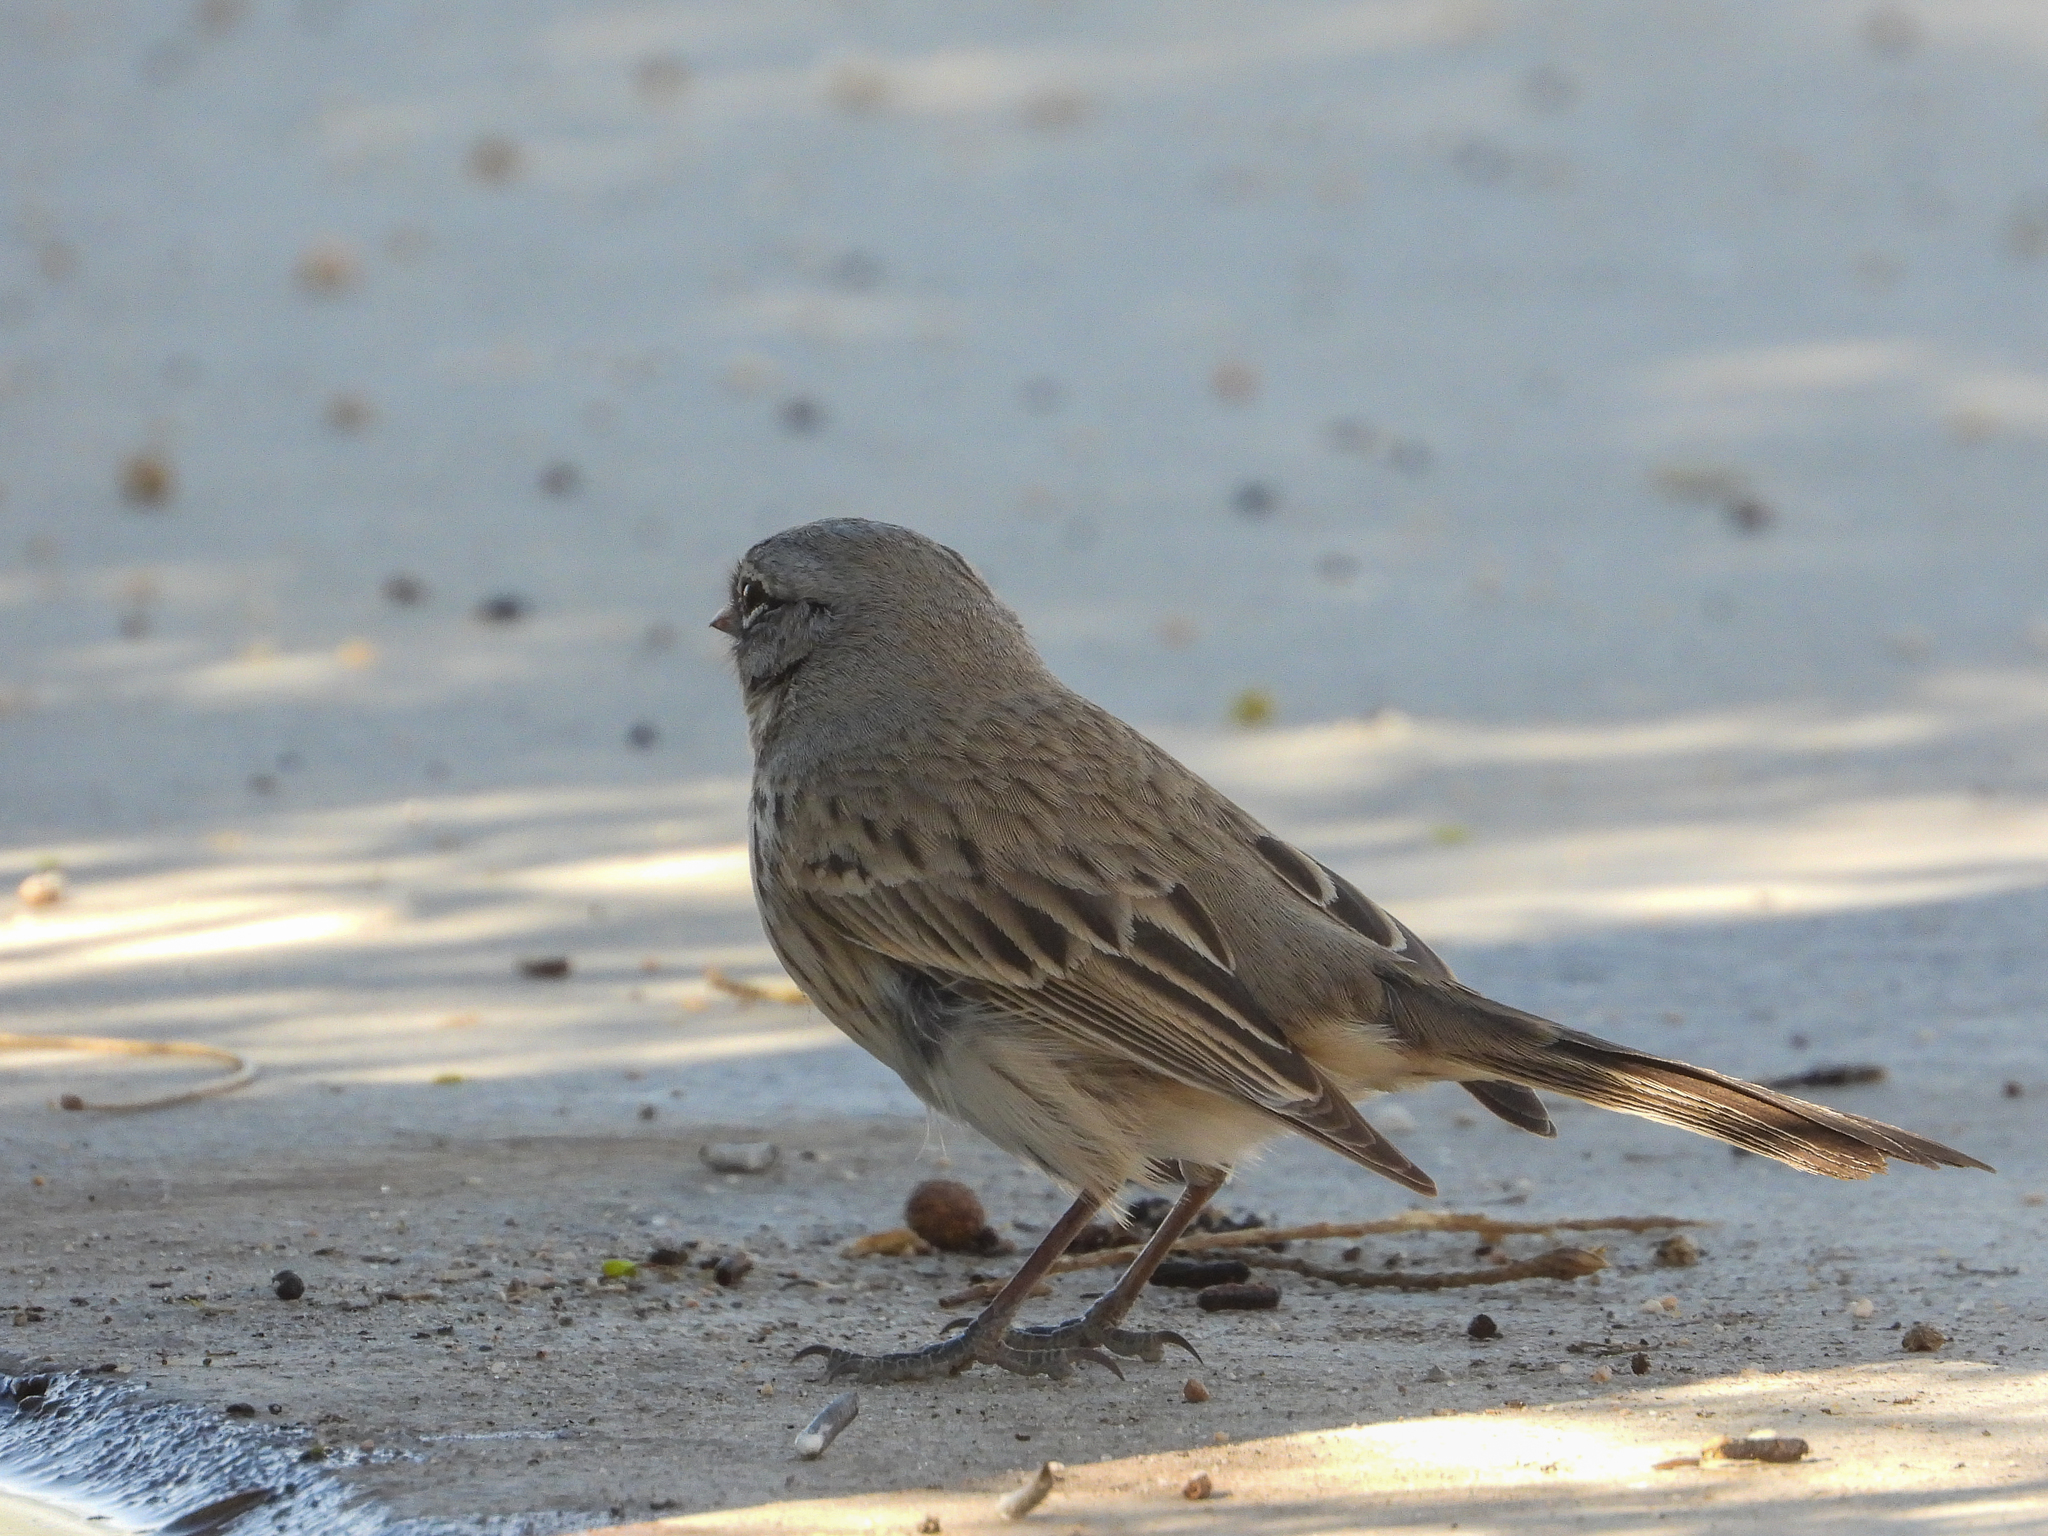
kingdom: Animalia
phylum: Chordata
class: Aves
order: Passeriformes
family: Passerellidae
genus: Artemisiospiza
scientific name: Artemisiospiza belli
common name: Bell's sparrow
